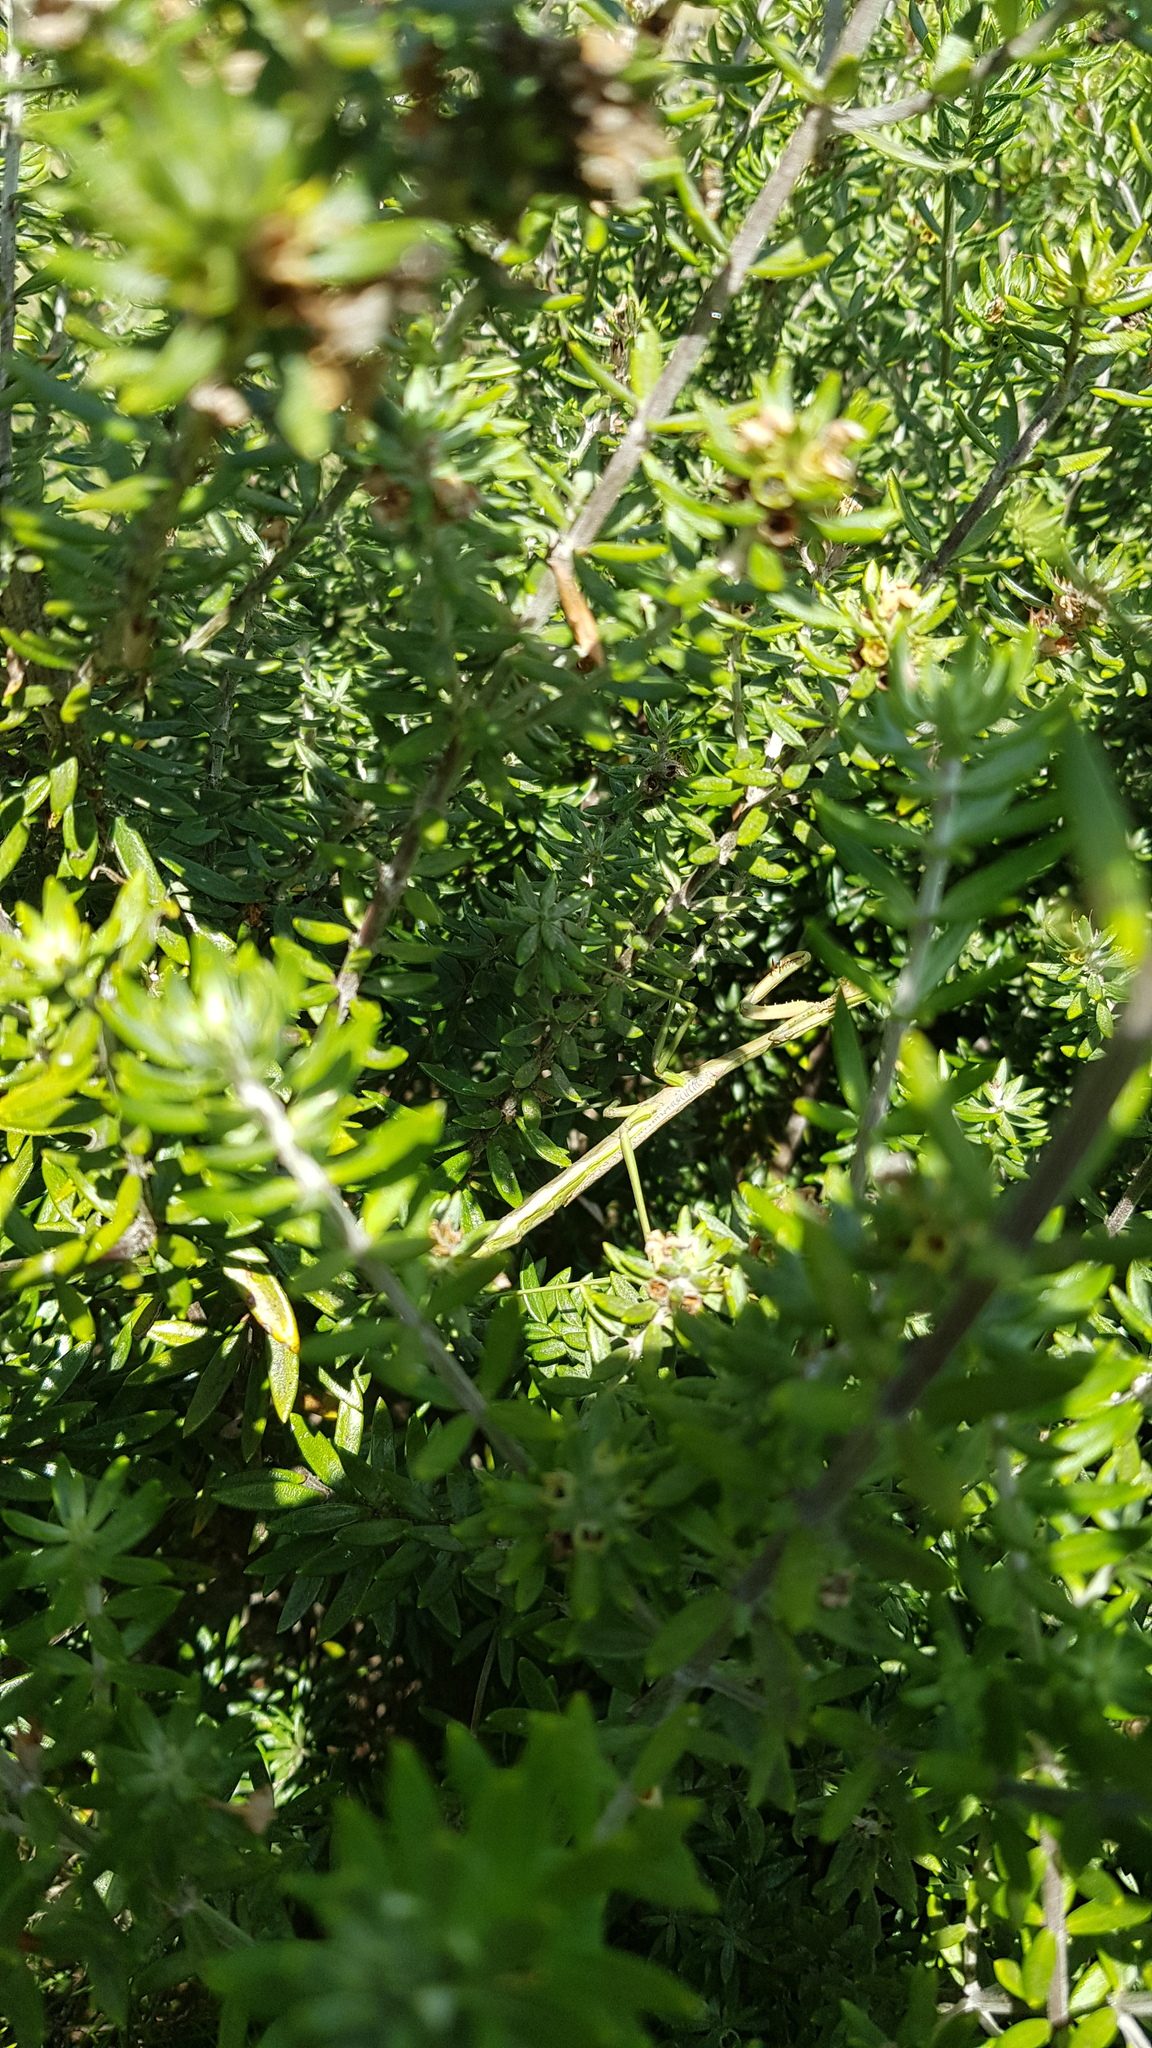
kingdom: Animalia
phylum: Arthropoda
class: Insecta
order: Mantodea
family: Mantidae
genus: Archimantis
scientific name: Archimantis latistyla
